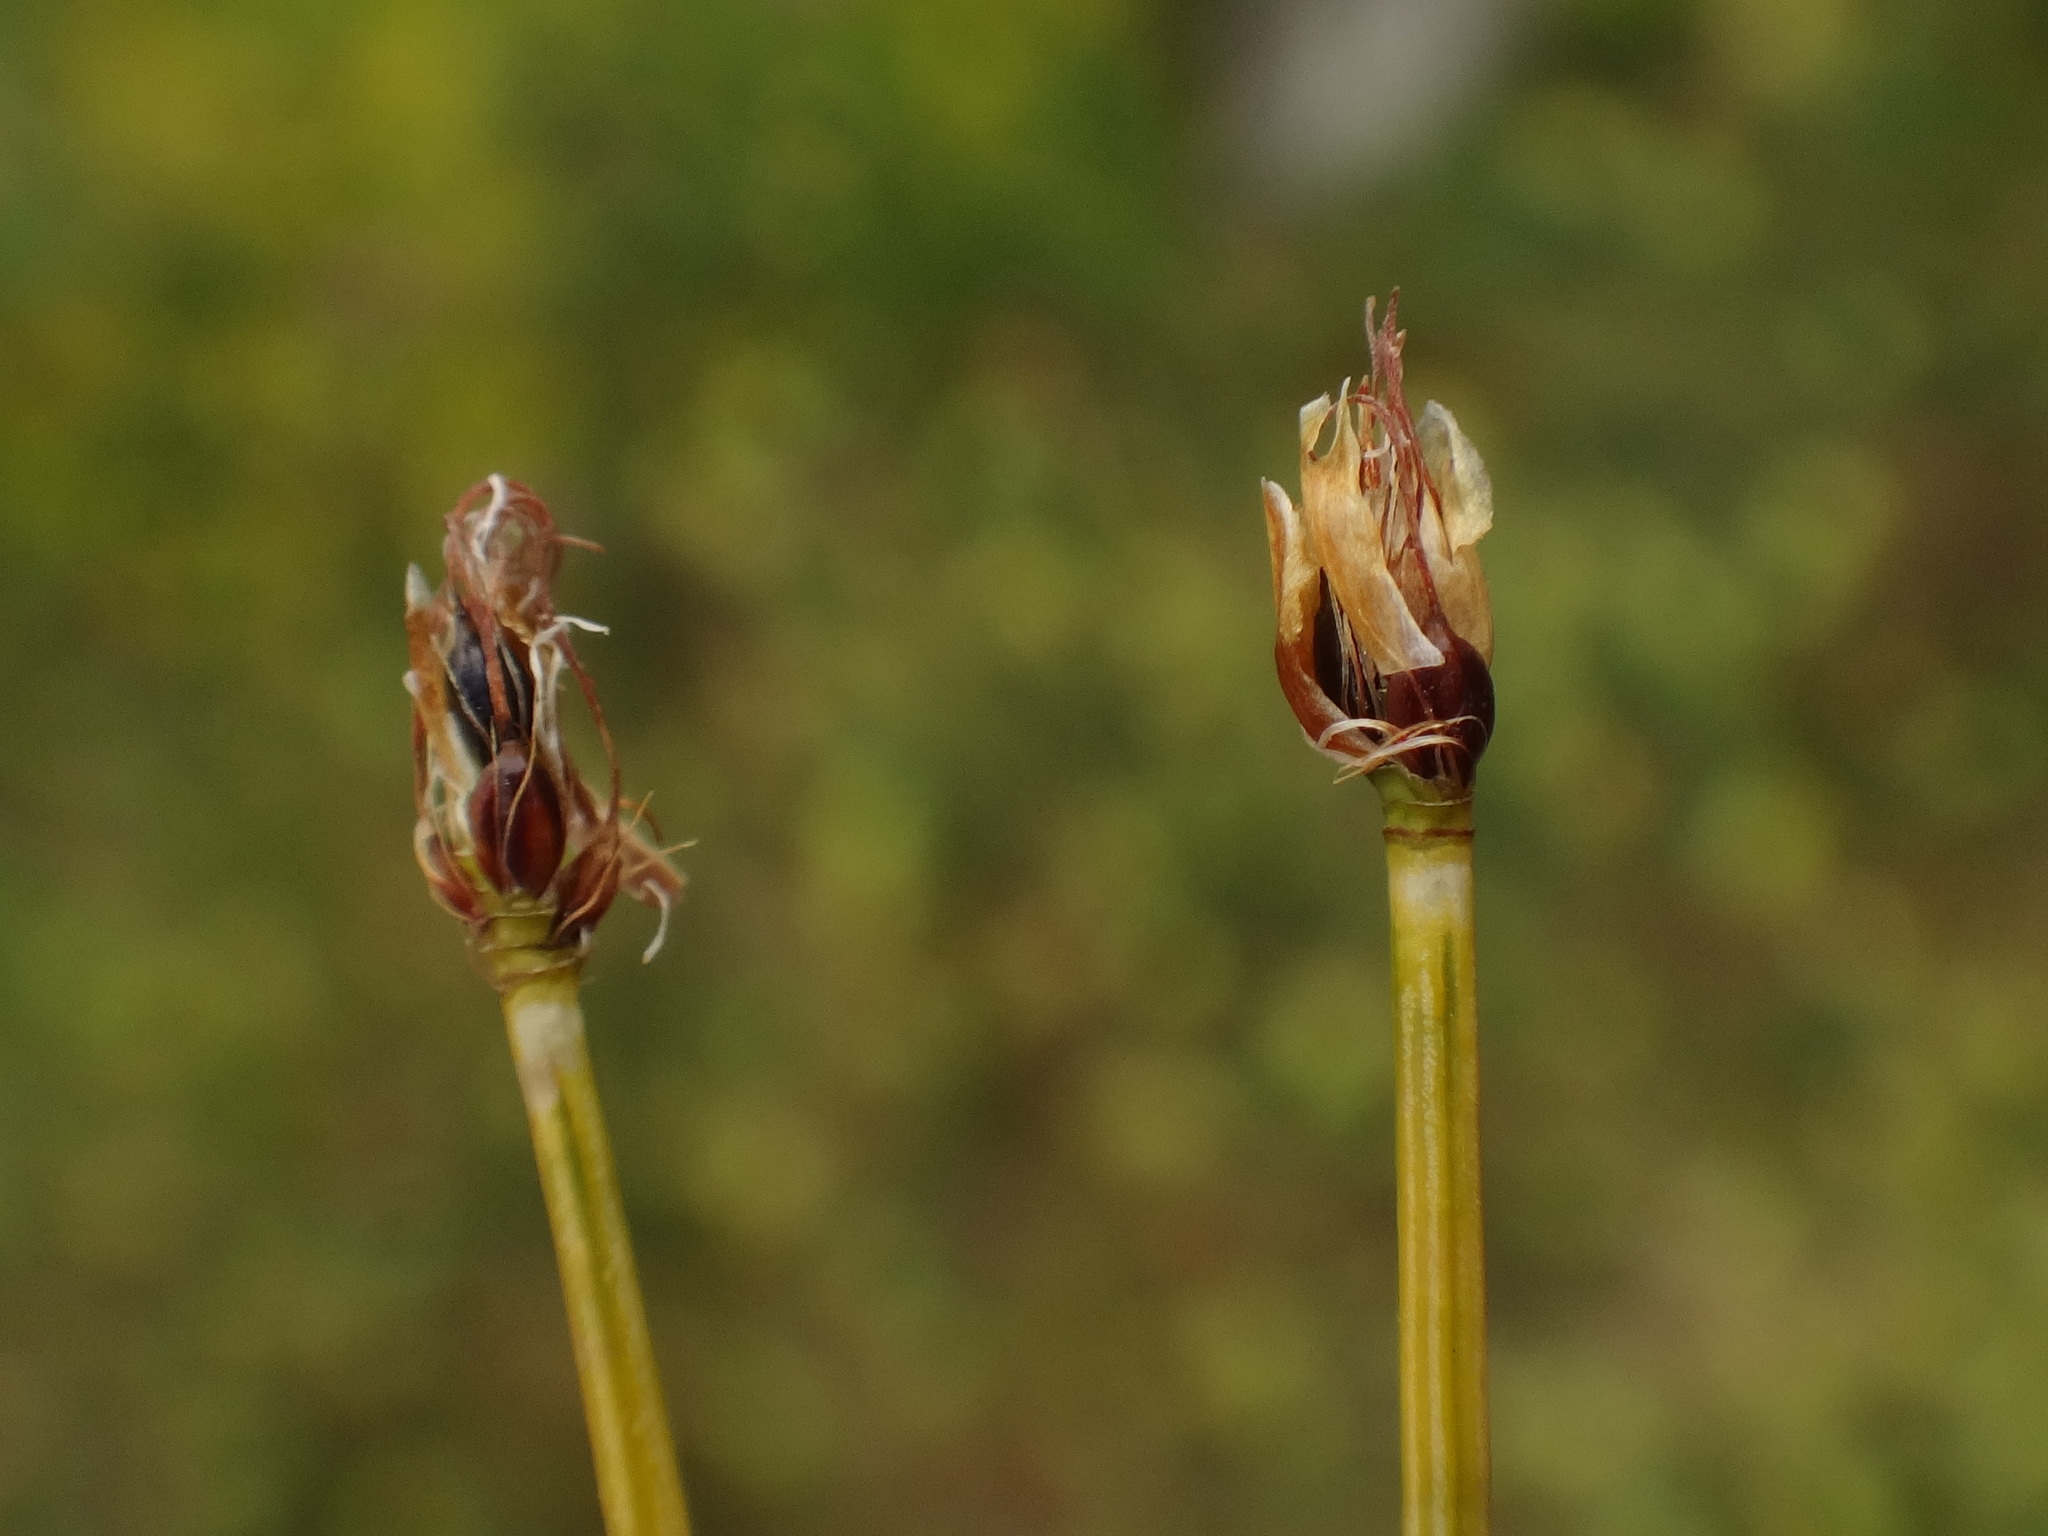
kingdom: Plantae
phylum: Tracheophyta
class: Liliopsida
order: Poales
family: Cyperaceae
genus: Trichophorum
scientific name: Trichophorum cespitosum
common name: Cespitose bulrush
